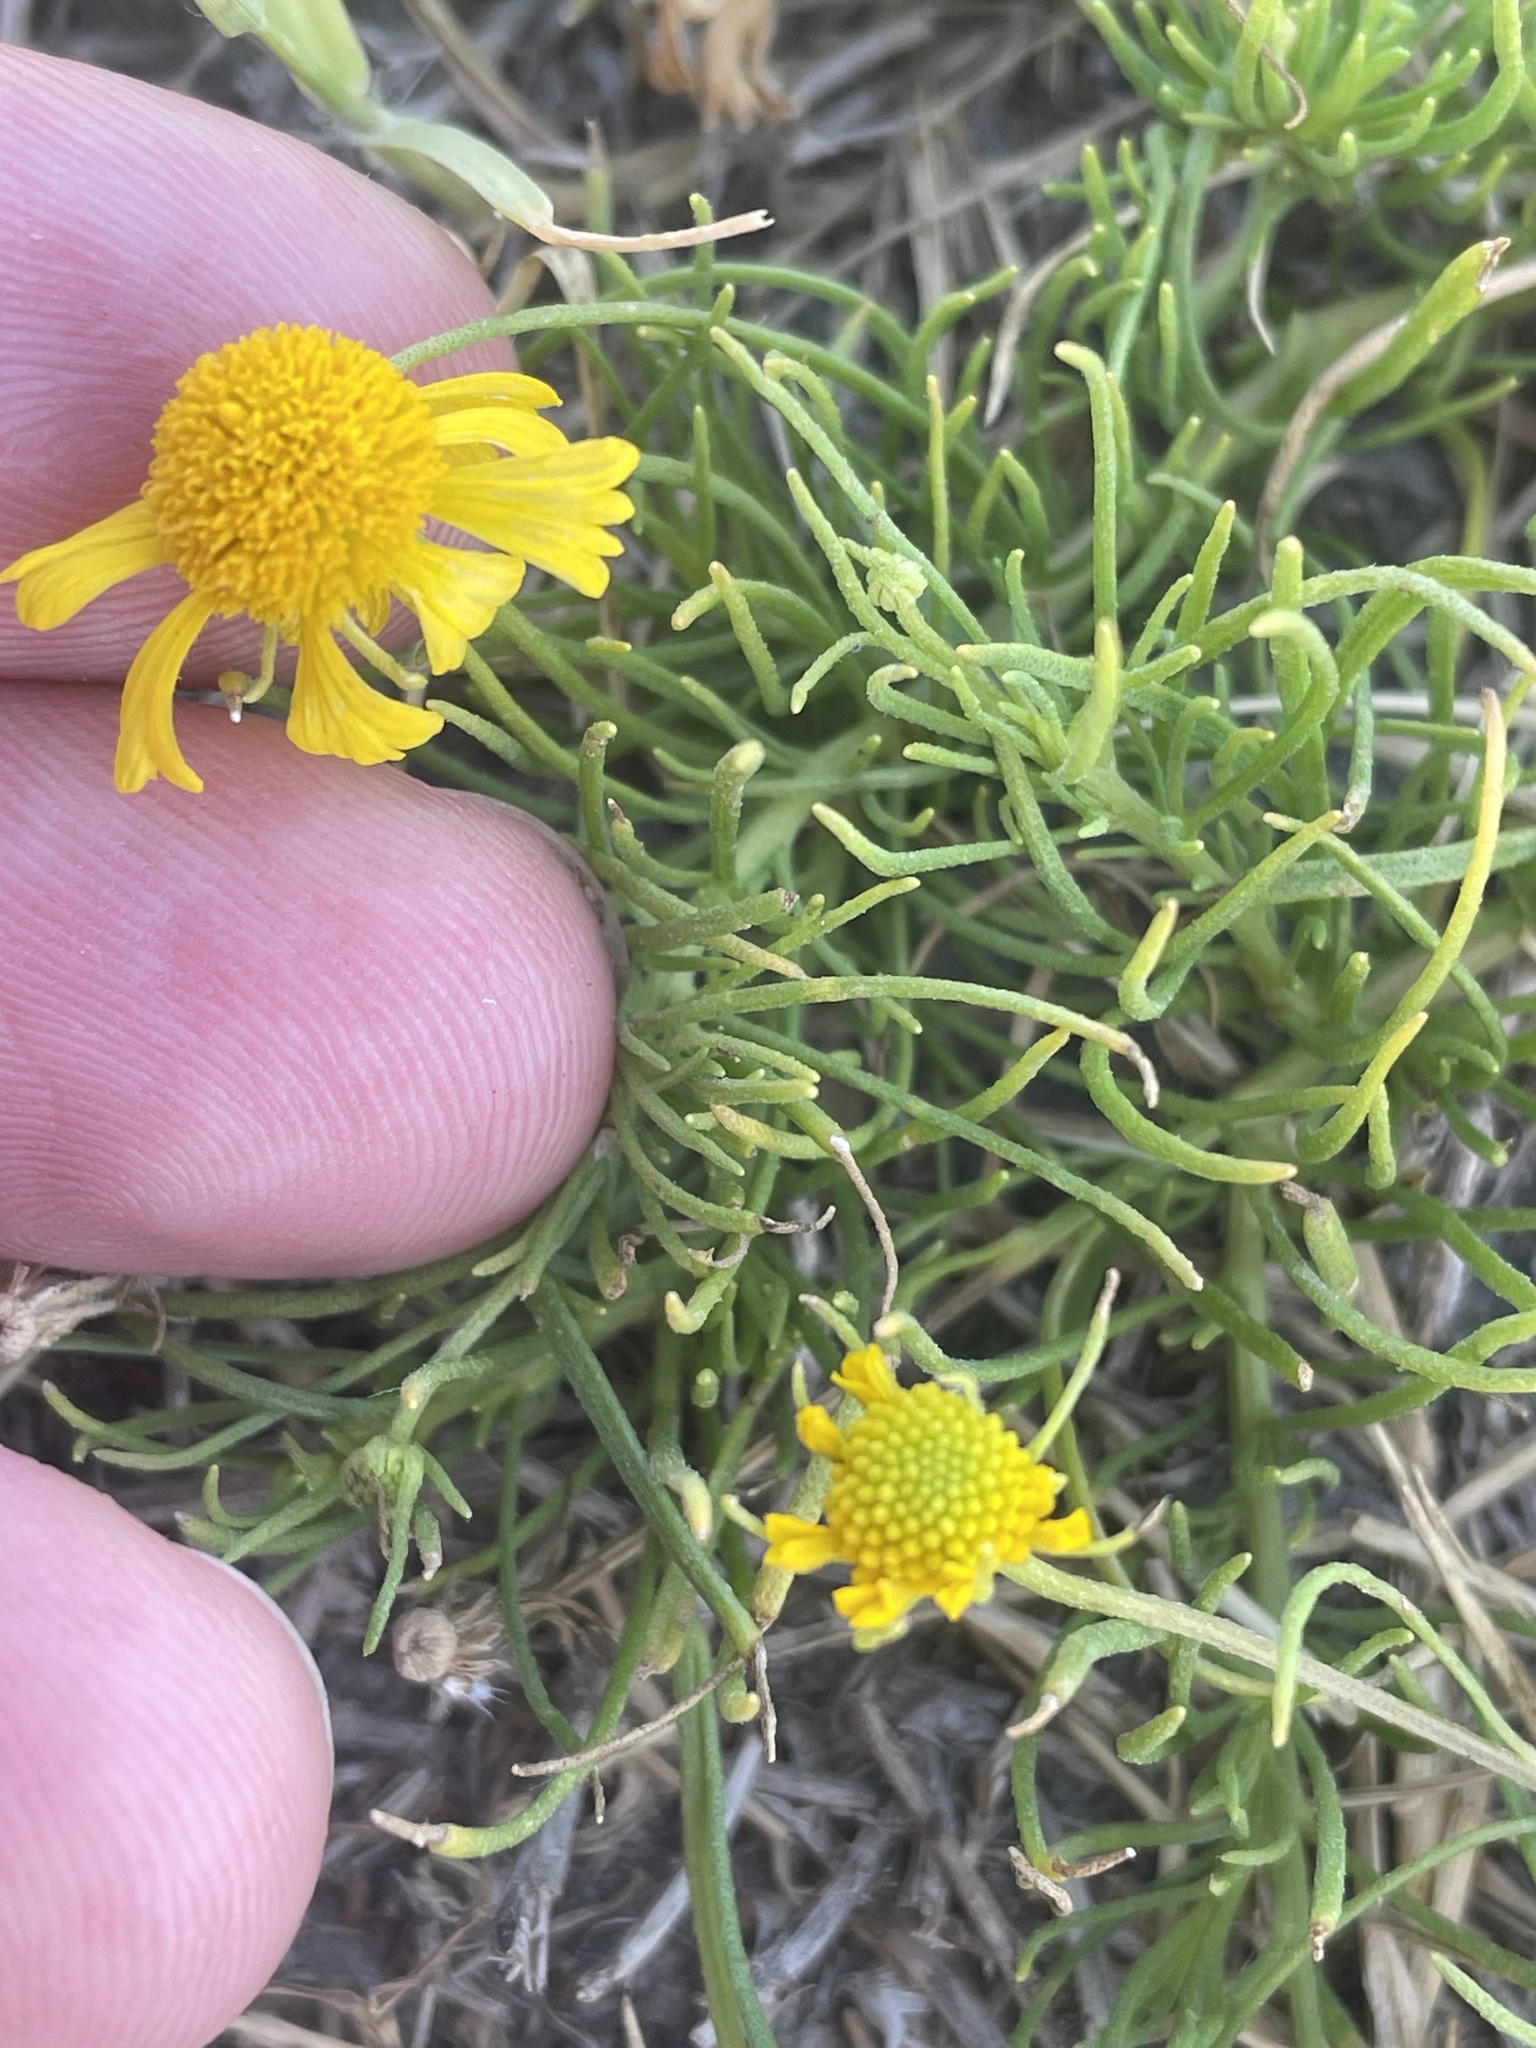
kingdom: Plantae
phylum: Tracheophyta
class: Magnoliopsida
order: Asterales
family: Asteraceae
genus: Helenium
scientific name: Helenium amarum
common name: Bitter sneezeweed
